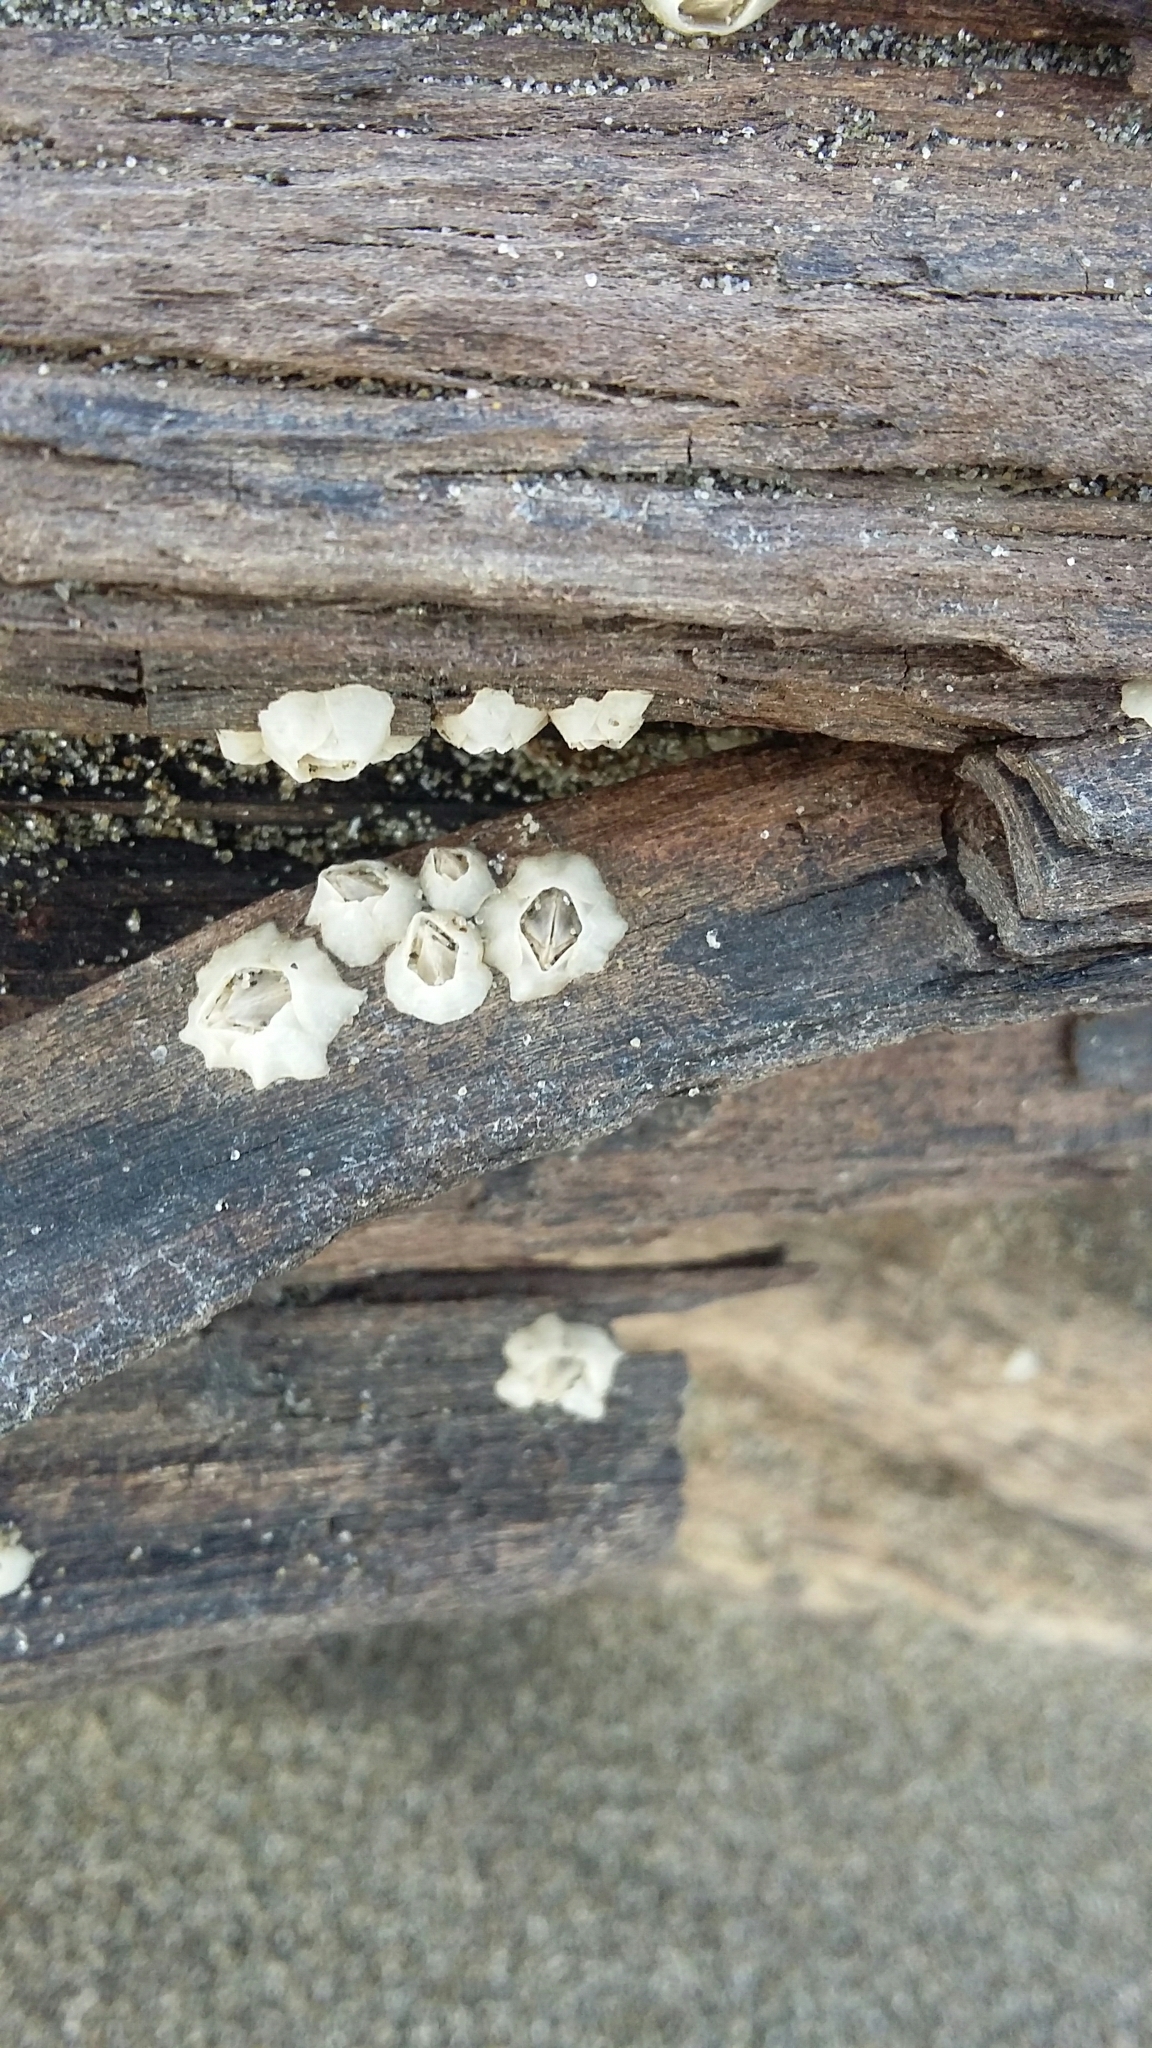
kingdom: Animalia
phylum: Arthropoda
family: Elminiidae
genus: Austrominius
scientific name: Austrominius modestus
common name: Australasian barnacle
